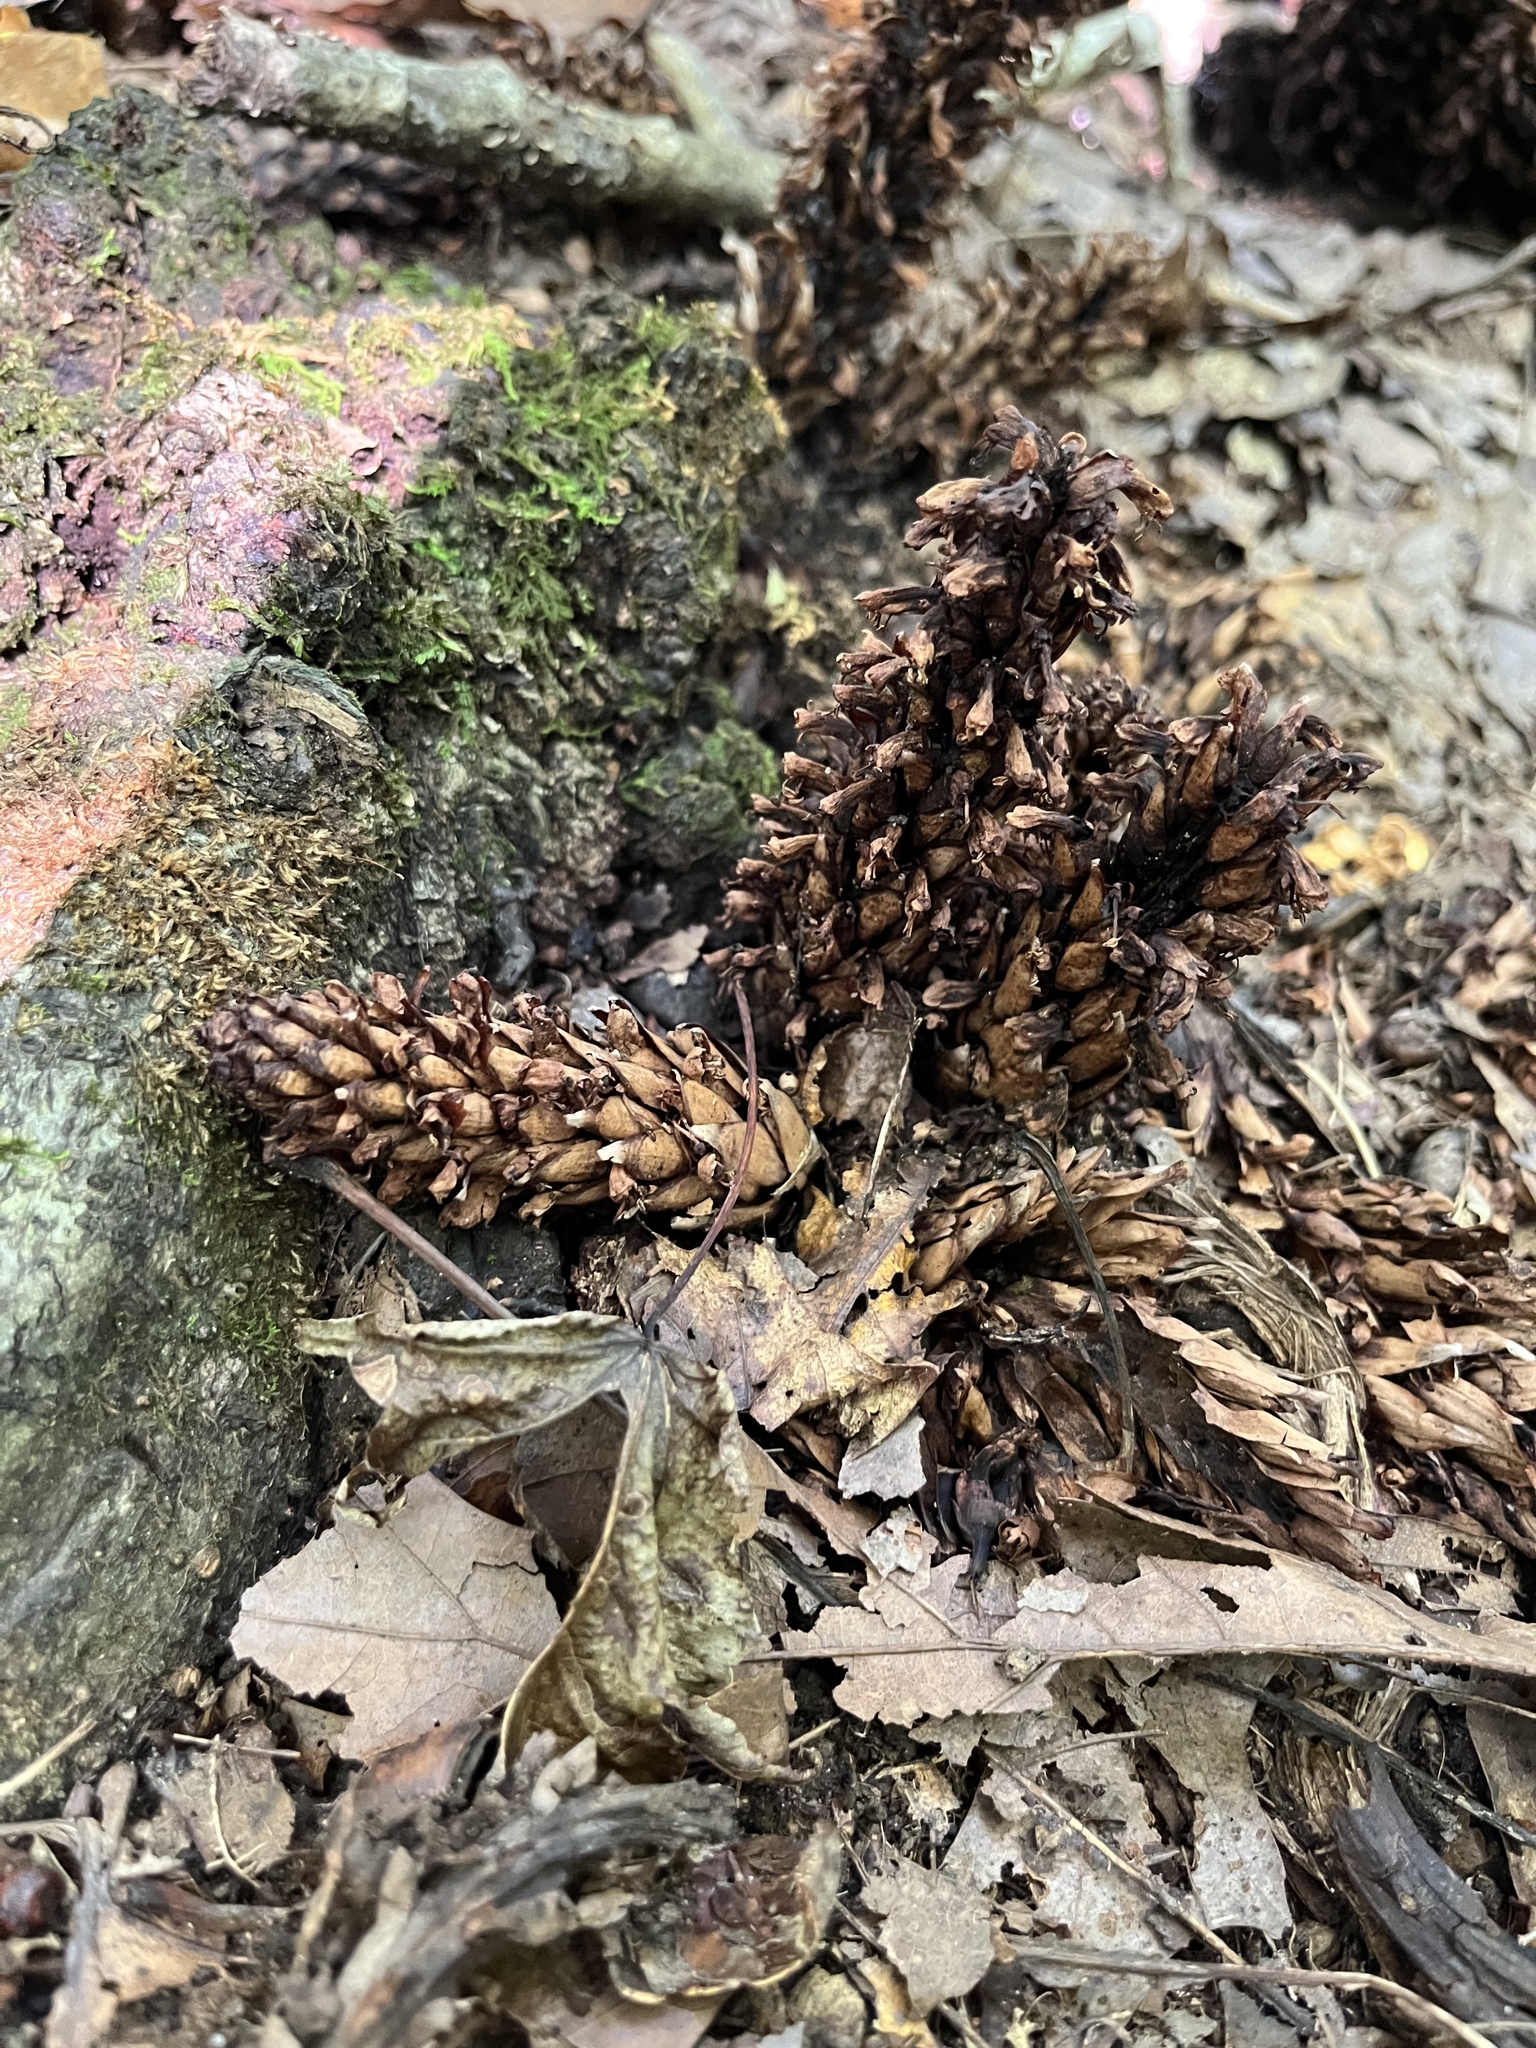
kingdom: Plantae
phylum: Tracheophyta
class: Magnoliopsida
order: Lamiales
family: Orobanchaceae
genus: Conopholis
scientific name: Conopholis americana
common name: American cancer-root
